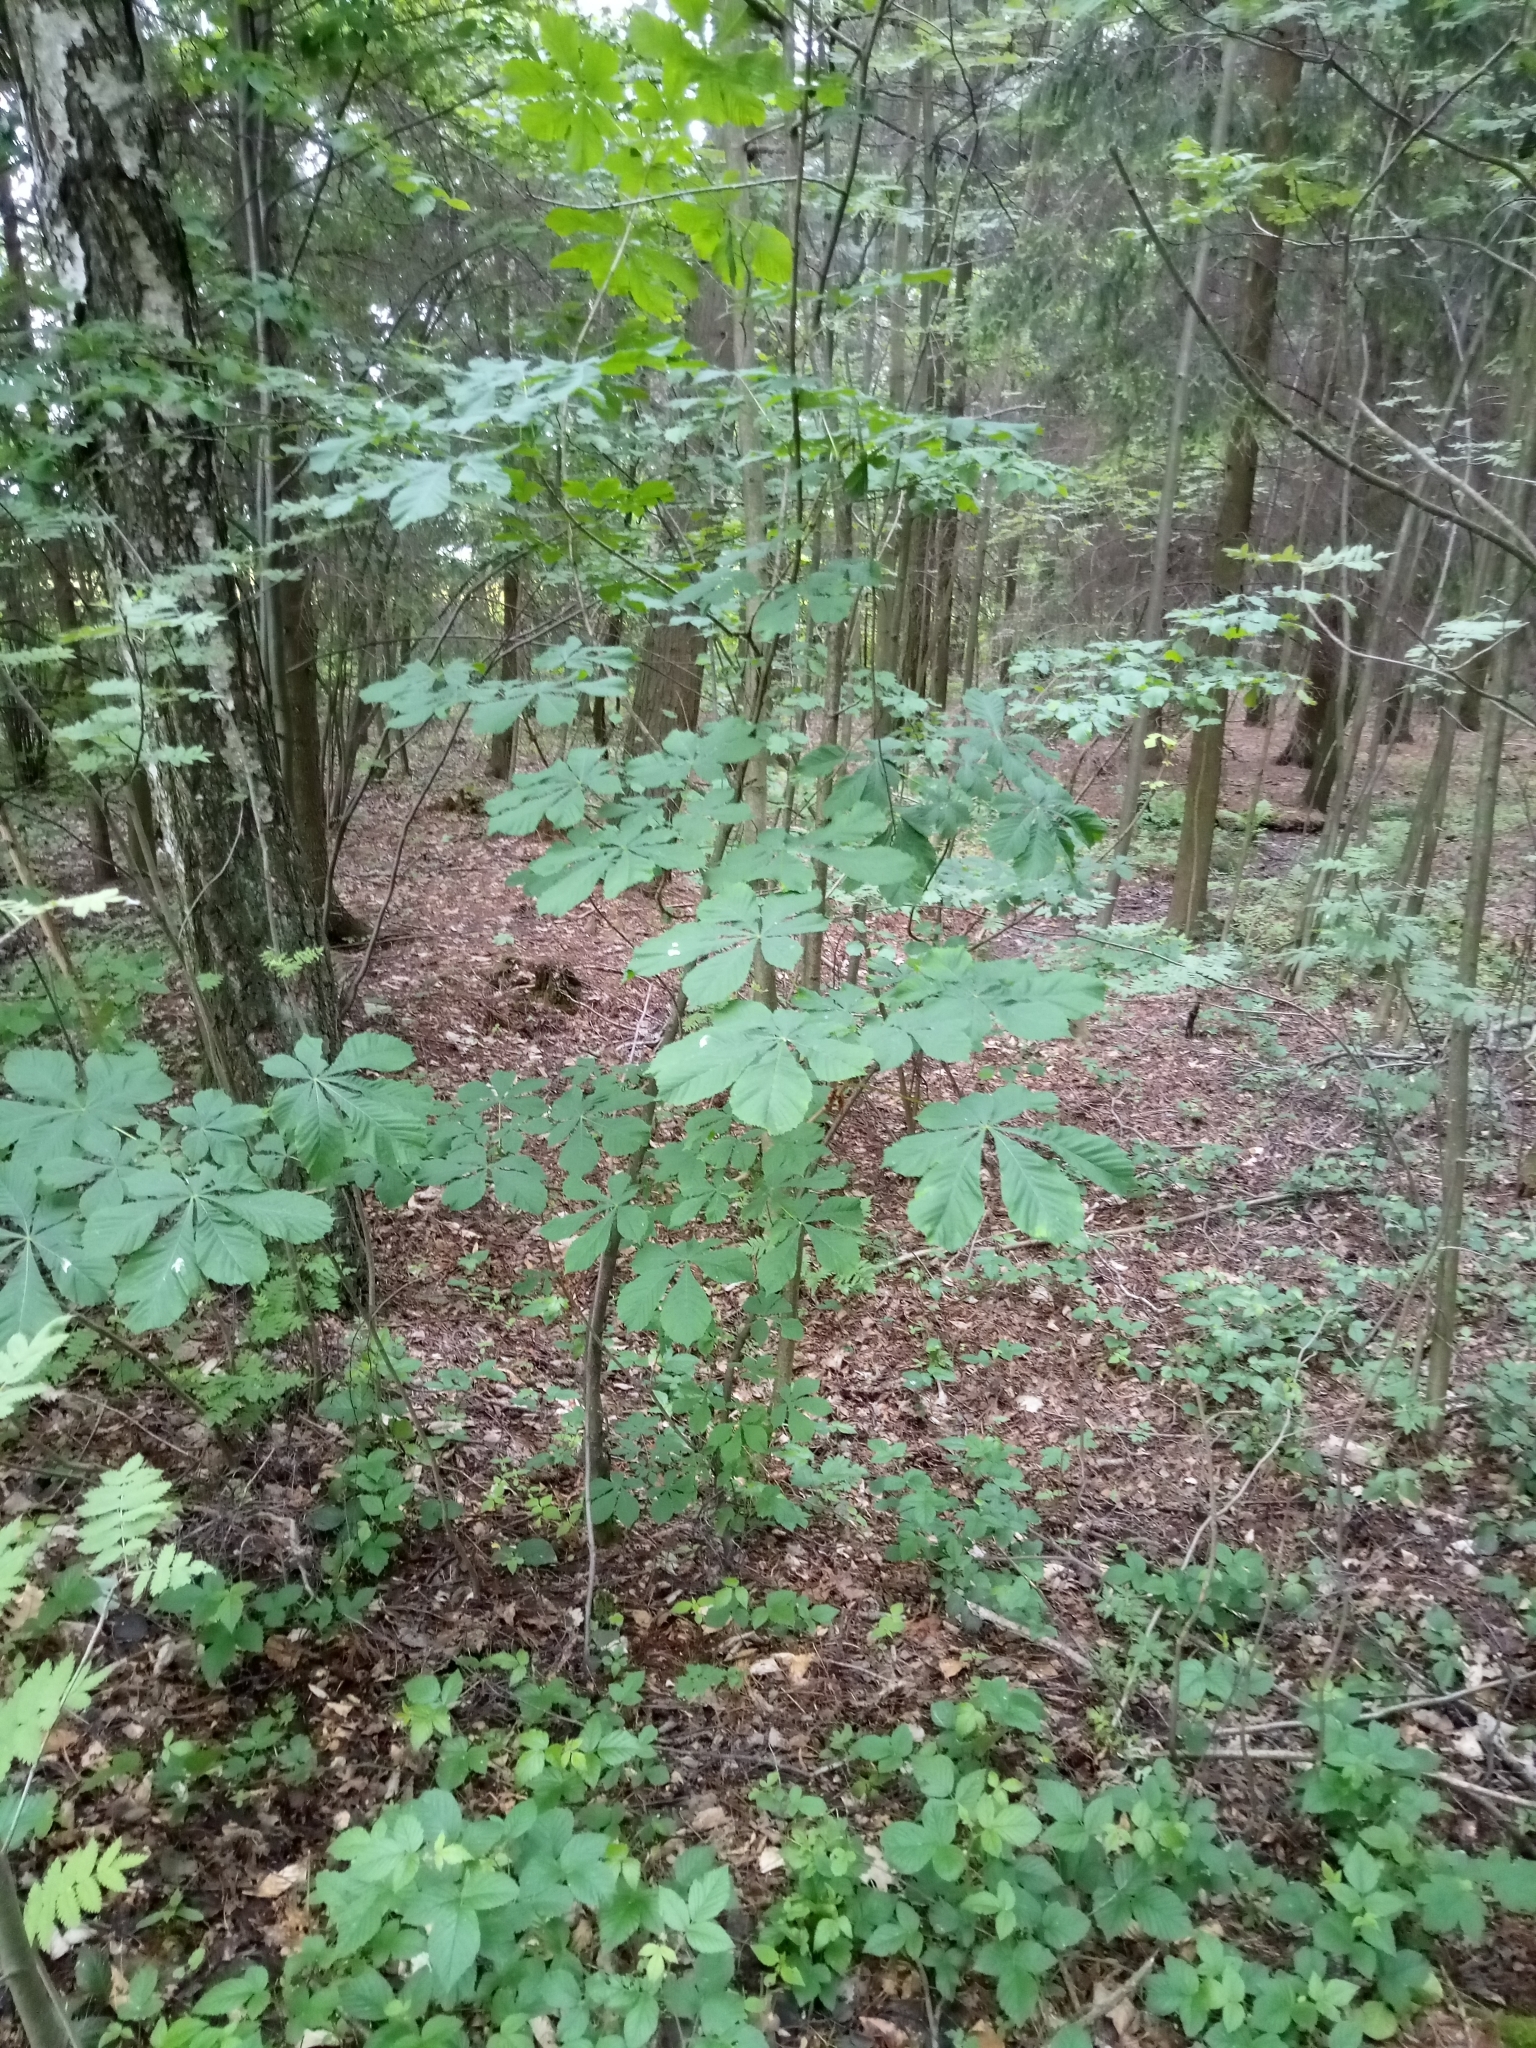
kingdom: Plantae
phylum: Tracheophyta
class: Magnoliopsida
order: Sapindales
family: Sapindaceae
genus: Aesculus
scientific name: Aesculus hippocastanum
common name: Horse-chestnut
